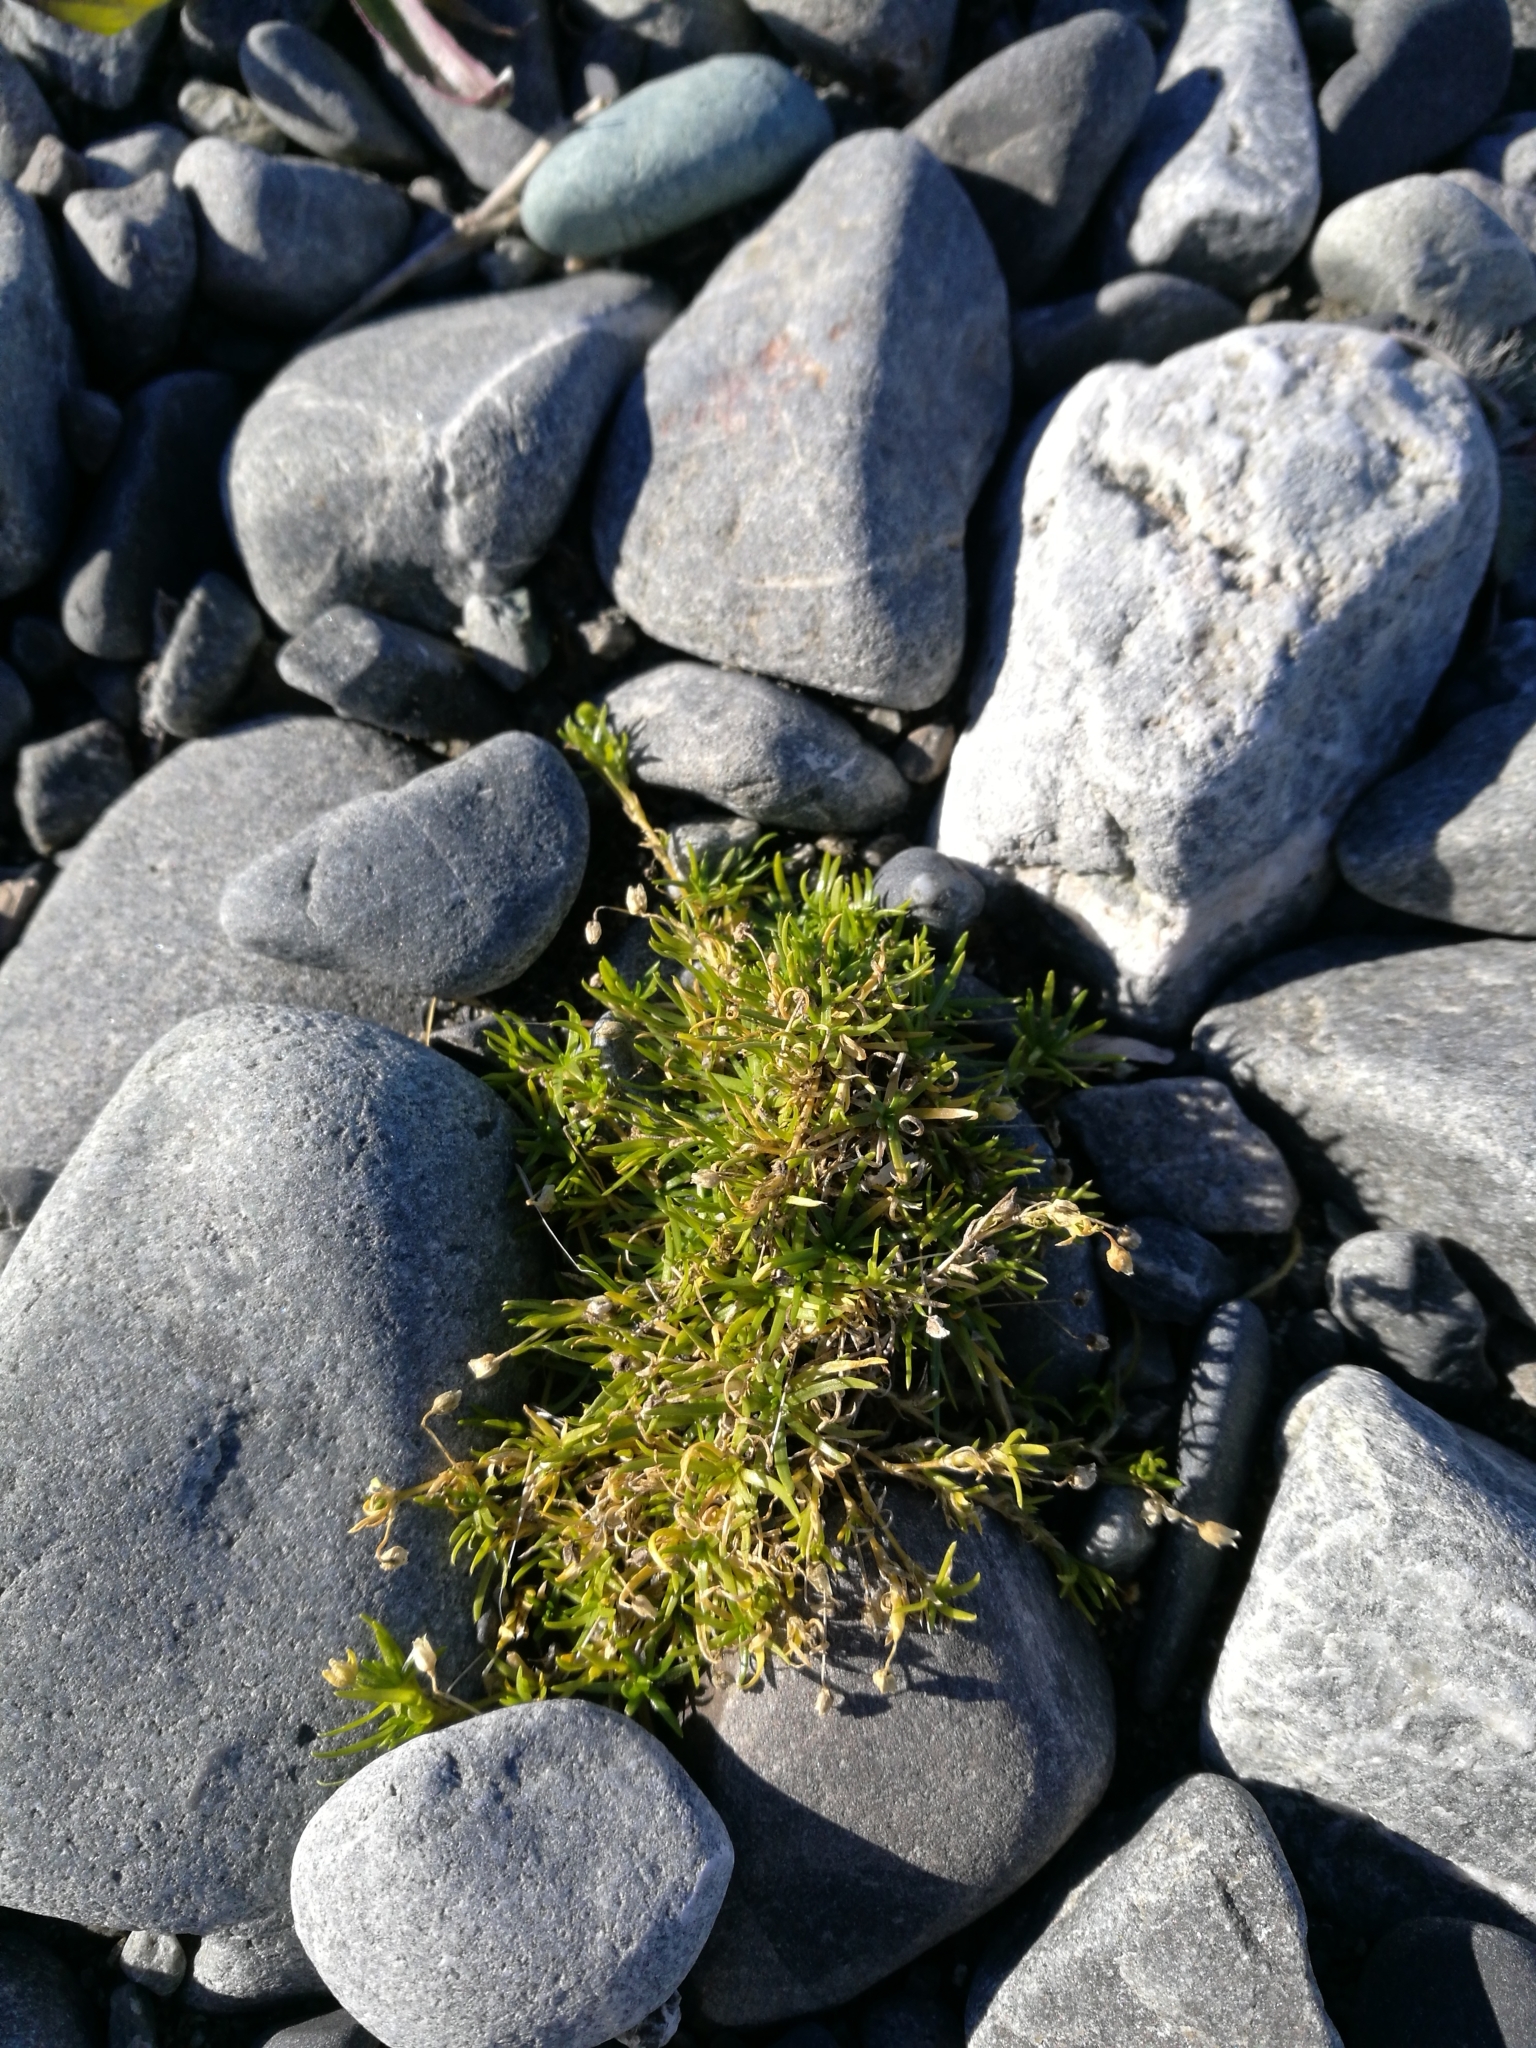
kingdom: Plantae
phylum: Tracheophyta
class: Magnoliopsida
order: Caryophyllales
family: Caryophyllaceae
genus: Sagina
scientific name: Sagina procumbens
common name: Procumbent pearlwort
